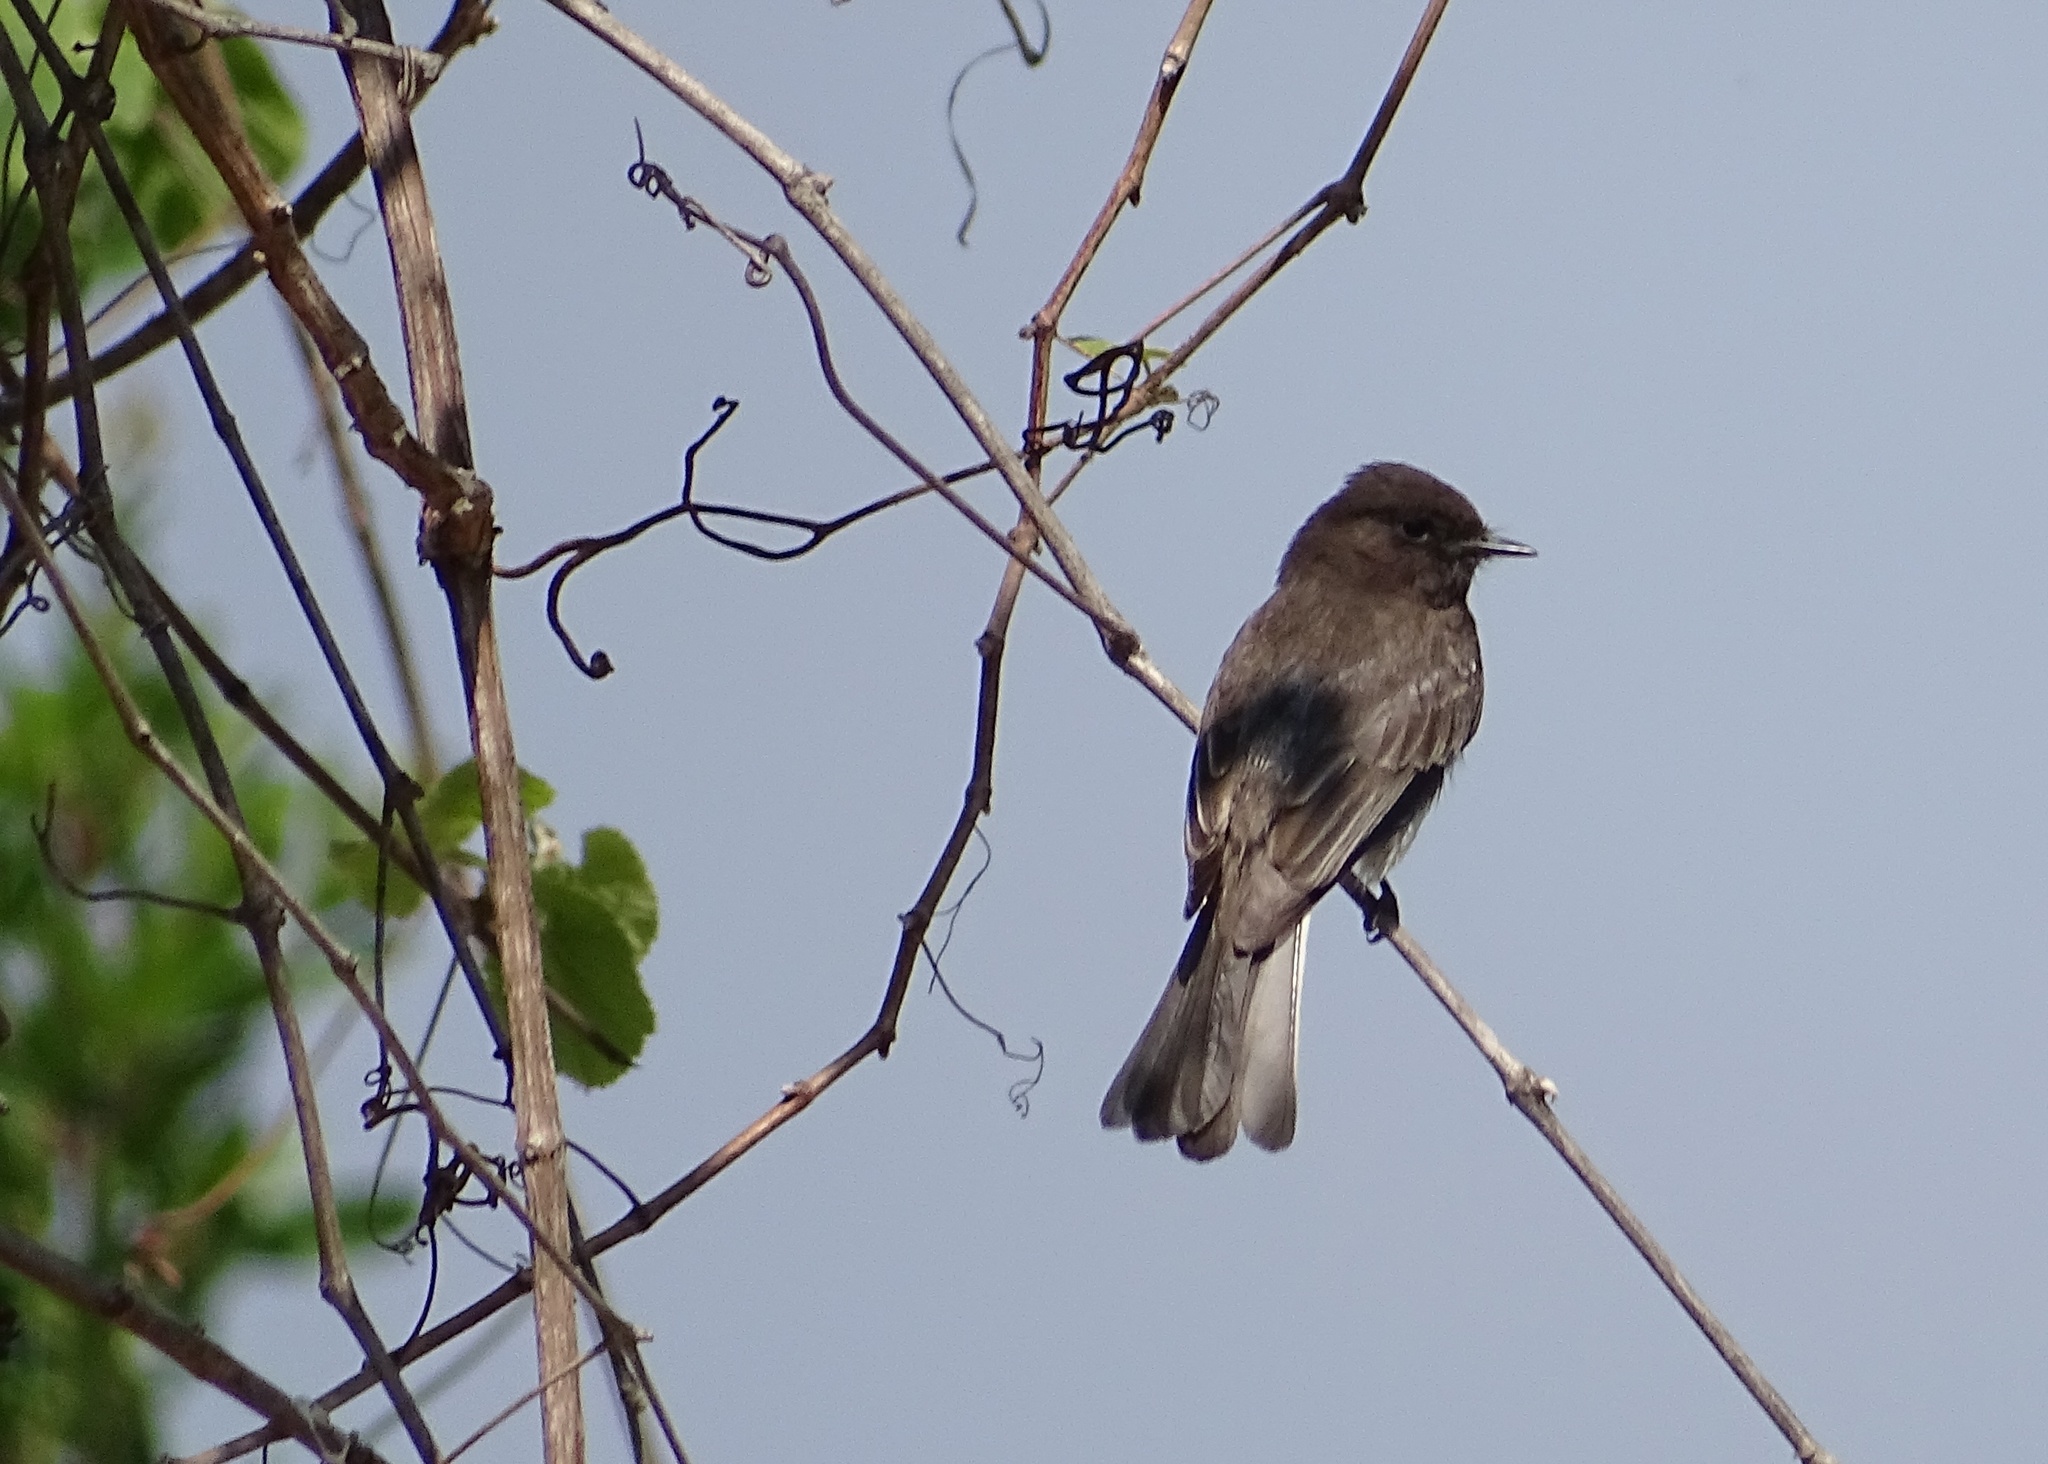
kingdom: Animalia
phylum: Chordata
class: Aves
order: Passeriformes
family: Tyrannidae
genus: Sayornis
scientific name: Sayornis nigricans
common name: Black phoebe
